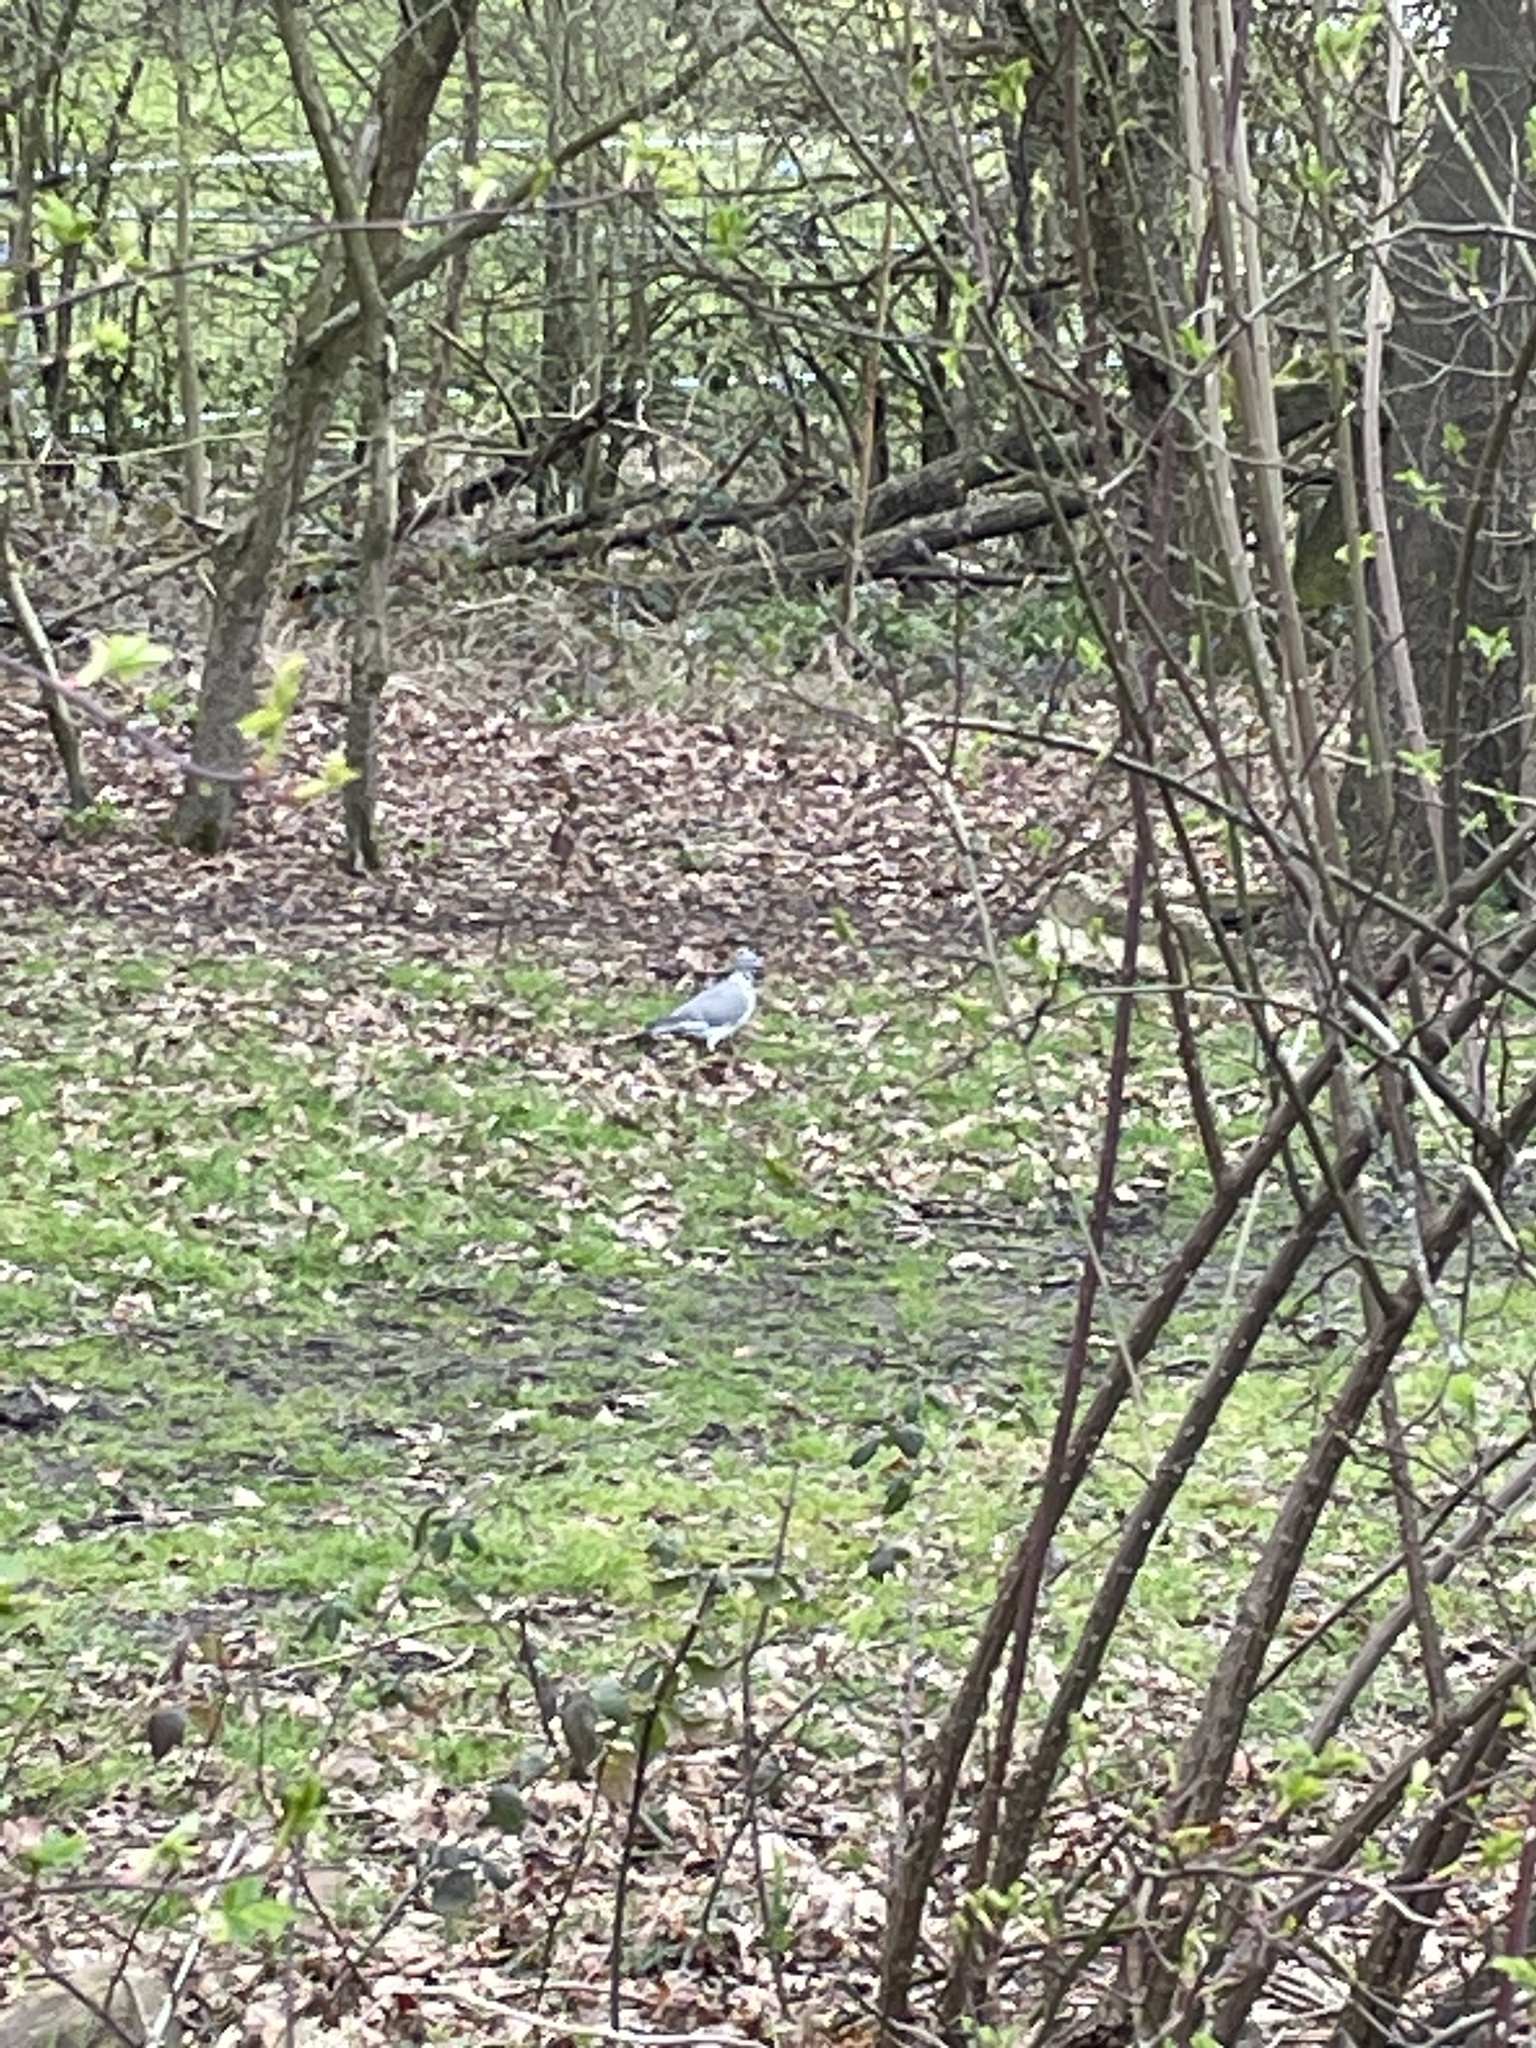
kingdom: Animalia
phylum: Chordata
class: Aves
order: Columbiformes
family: Columbidae
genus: Columba
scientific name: Columba palumbus
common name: Common wood pigeon
